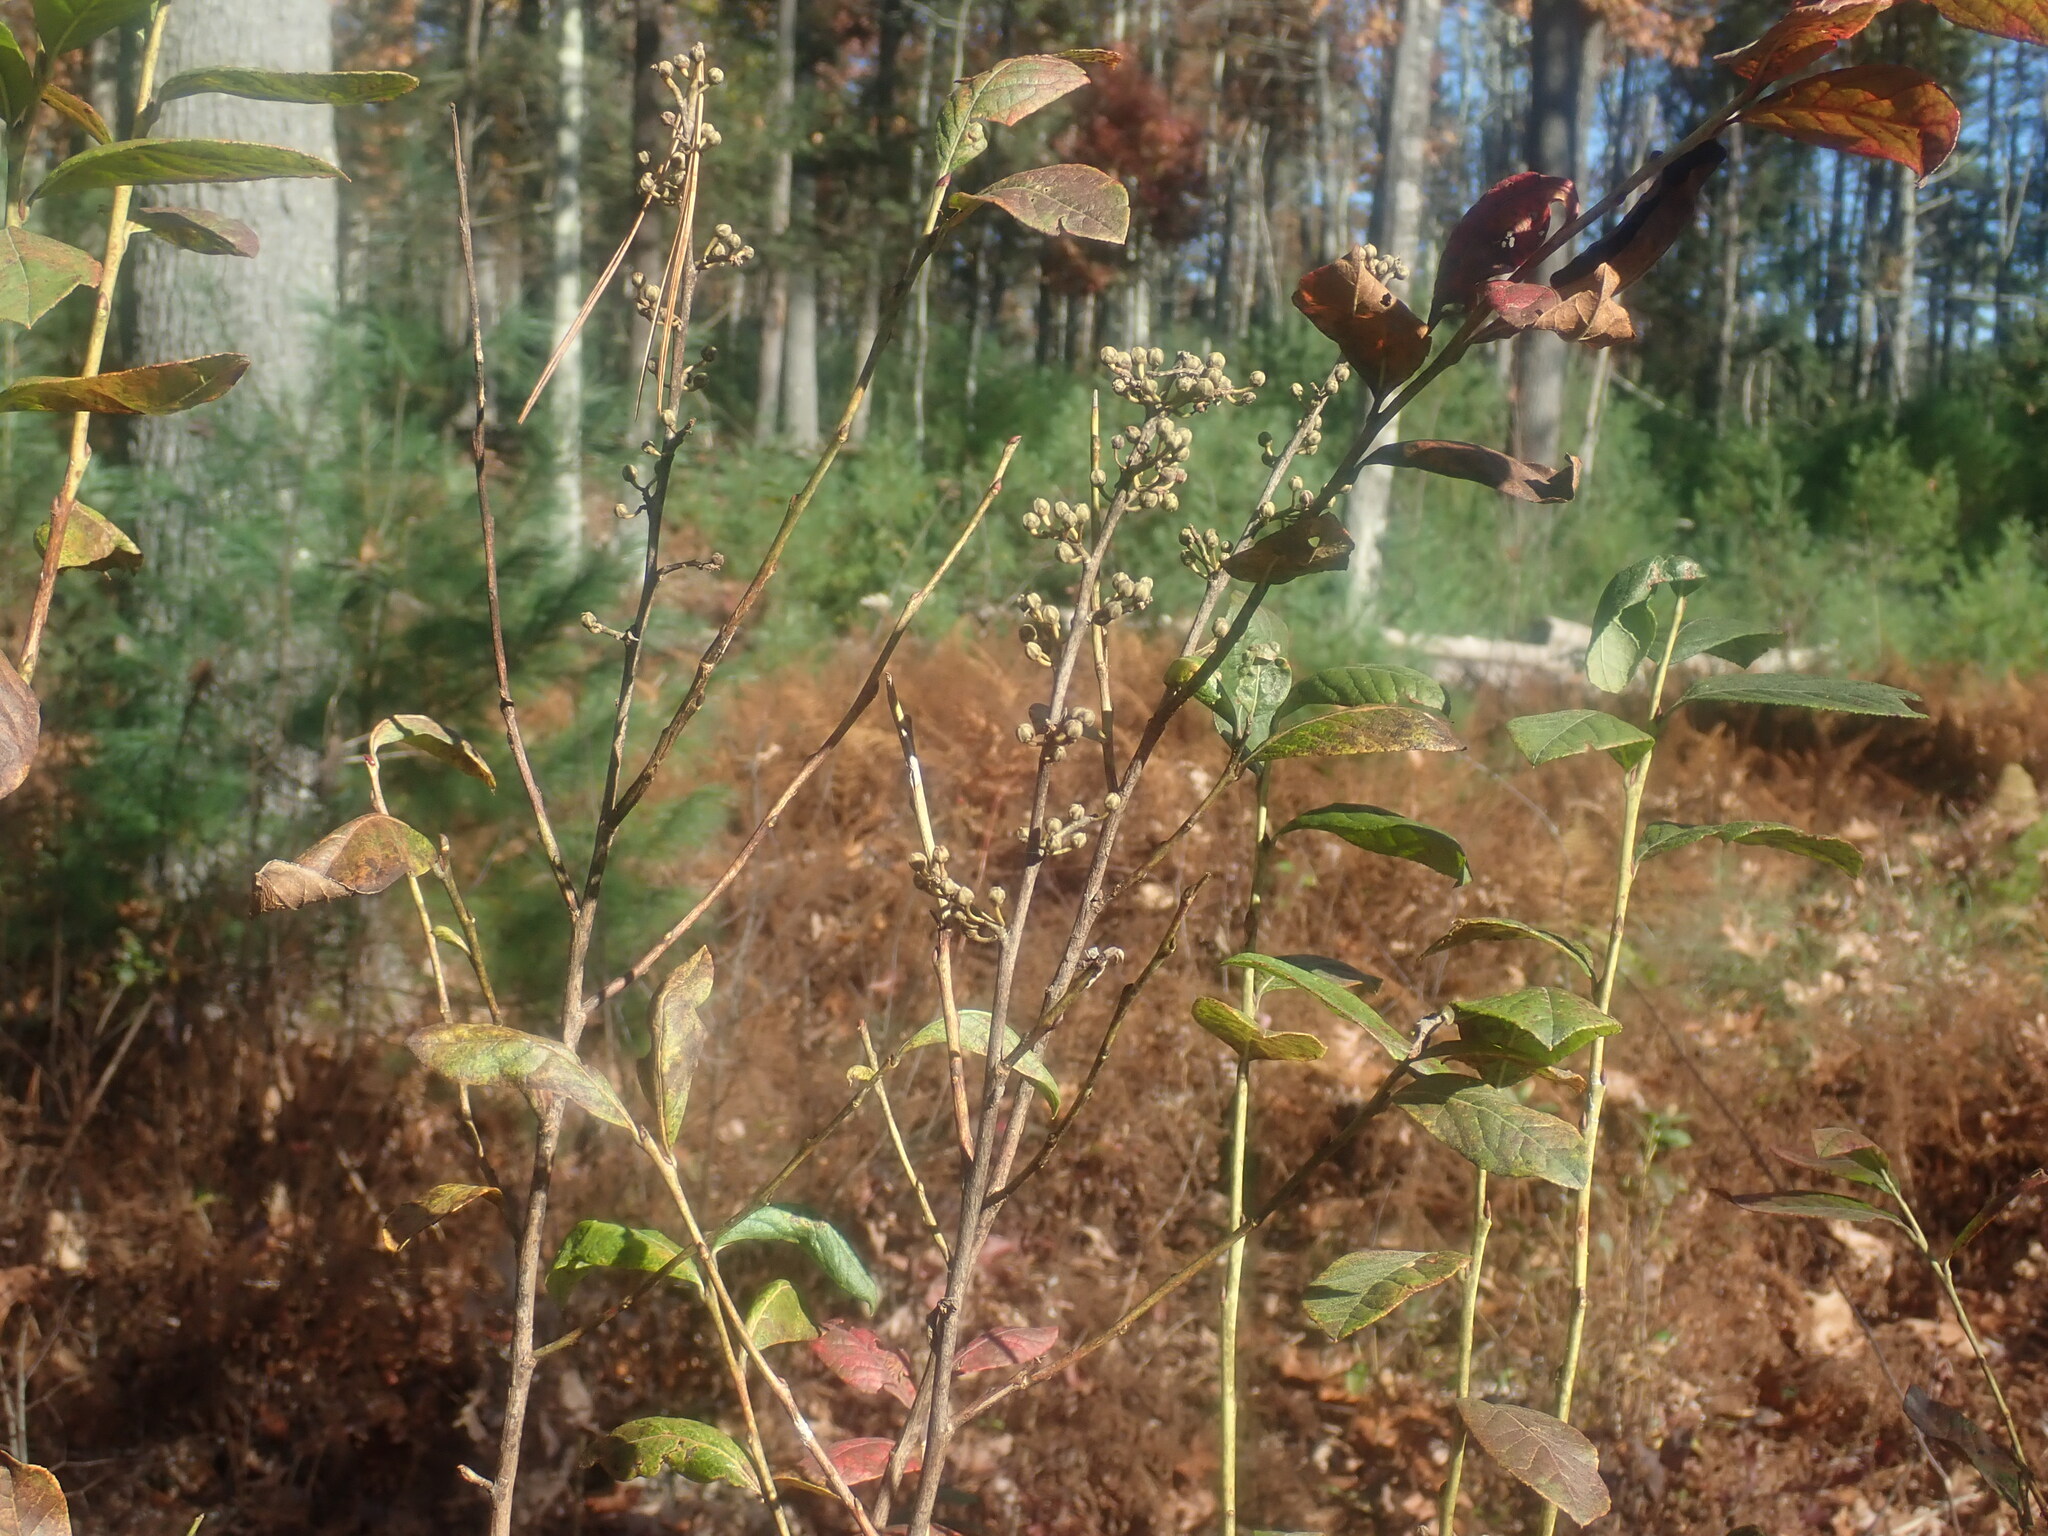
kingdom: Plantae
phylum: Tracheophyta
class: Magnoliopsida
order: Ericales
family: Ericaceae
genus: Lyonia
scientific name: Lyonia ligustrina
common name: Maleberry
